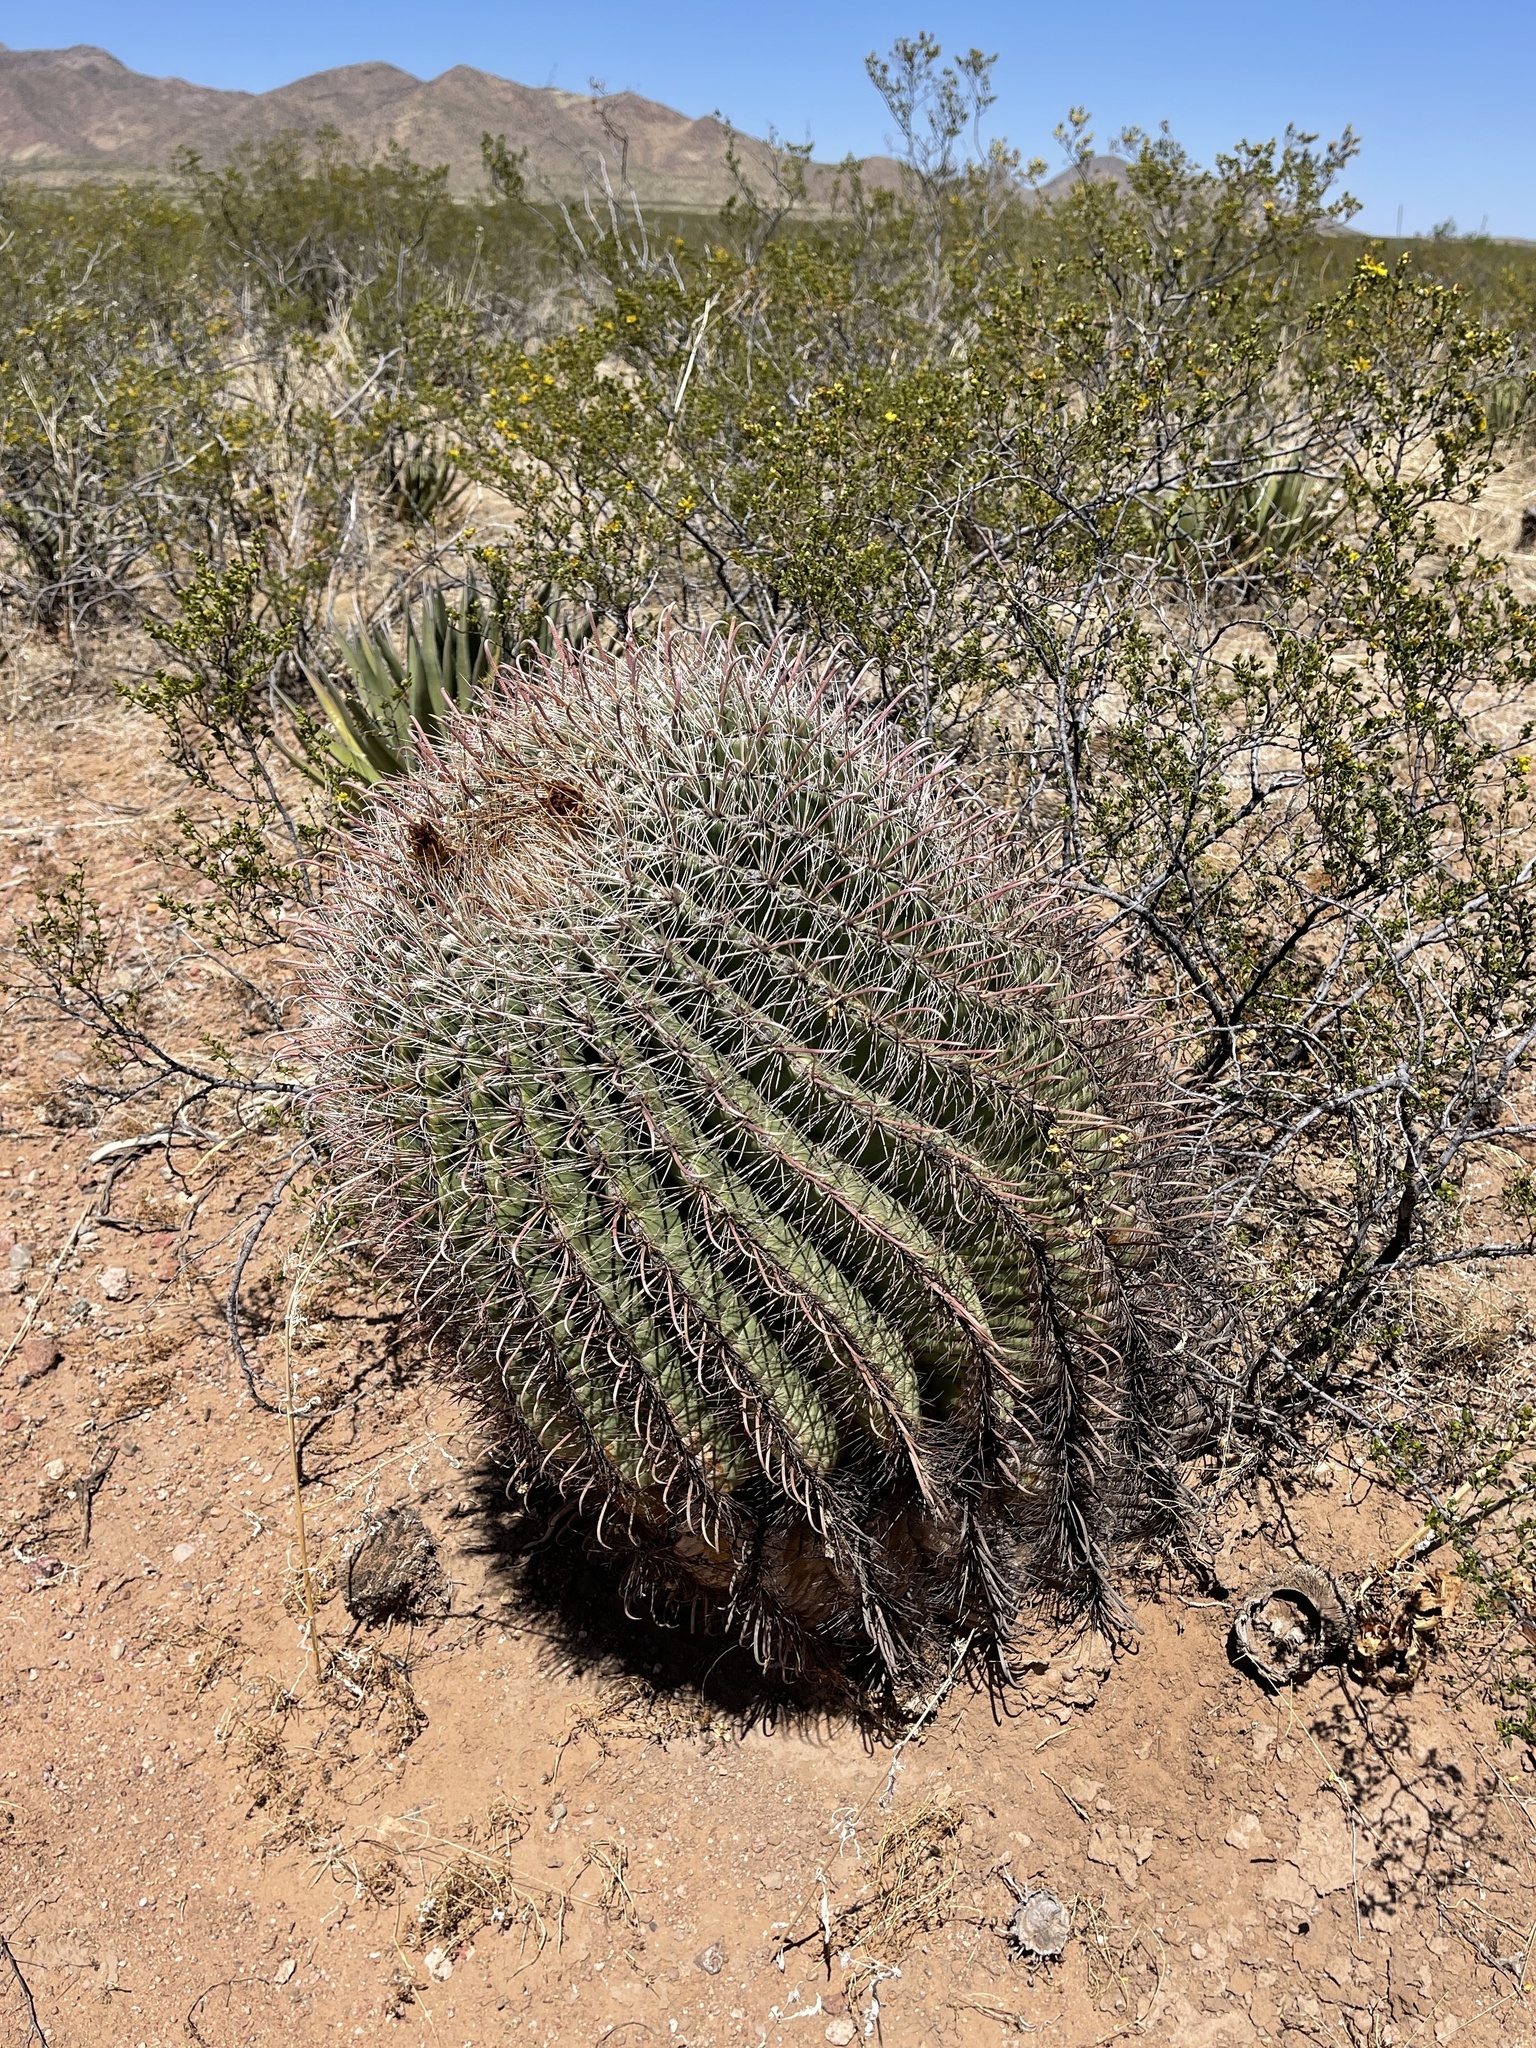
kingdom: Plantae
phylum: Tracheophyta
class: Magnoliopsida
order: Caryophyllales
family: Cactaceae
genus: Ferocactus
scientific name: Ferocactus wislizeni
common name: Candy barrel cactus
